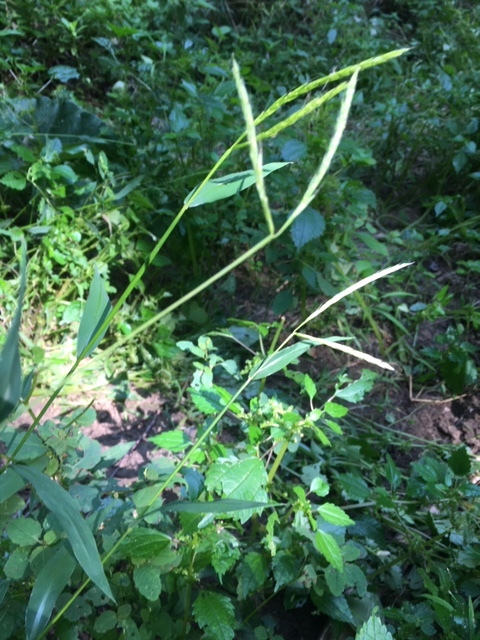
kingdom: Plantae
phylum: Tracheophyta
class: Liliopsida
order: Poales
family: Poaceae
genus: Microstegium
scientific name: Microstegium vimineum
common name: Japanese stiltgrass
